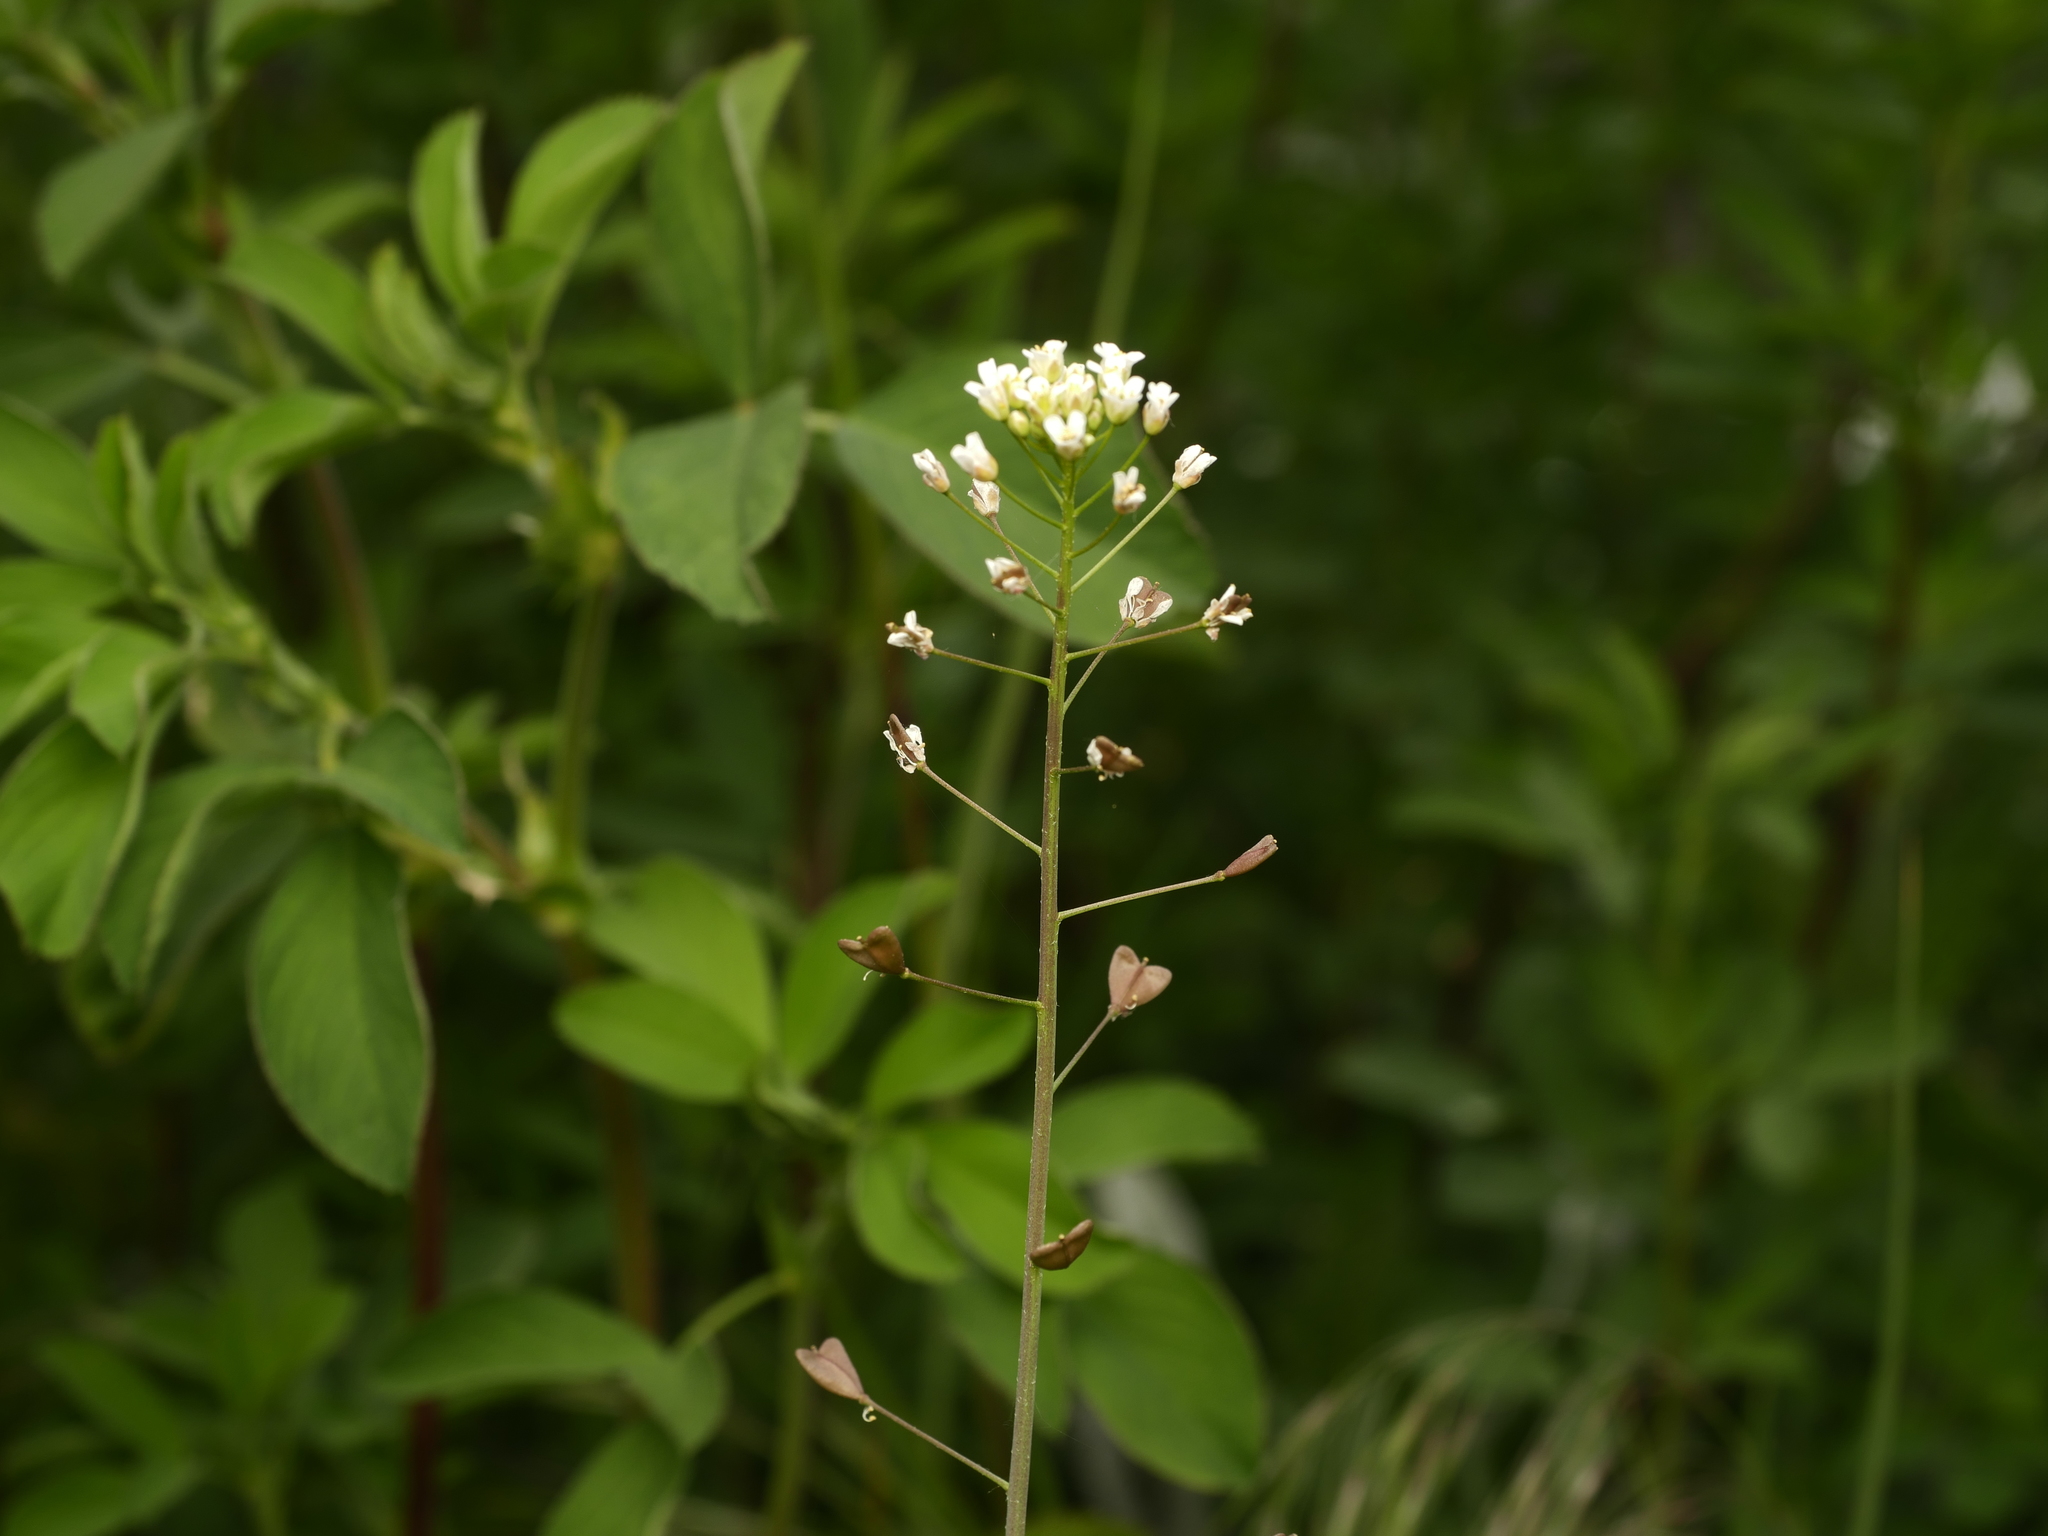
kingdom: Plantae
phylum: Tracheophyta
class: Magnoliopsida
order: Brassicales
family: Brassicaceae
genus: Capsella
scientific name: Capsella bursa-pastoris
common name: Shepherd's purse
